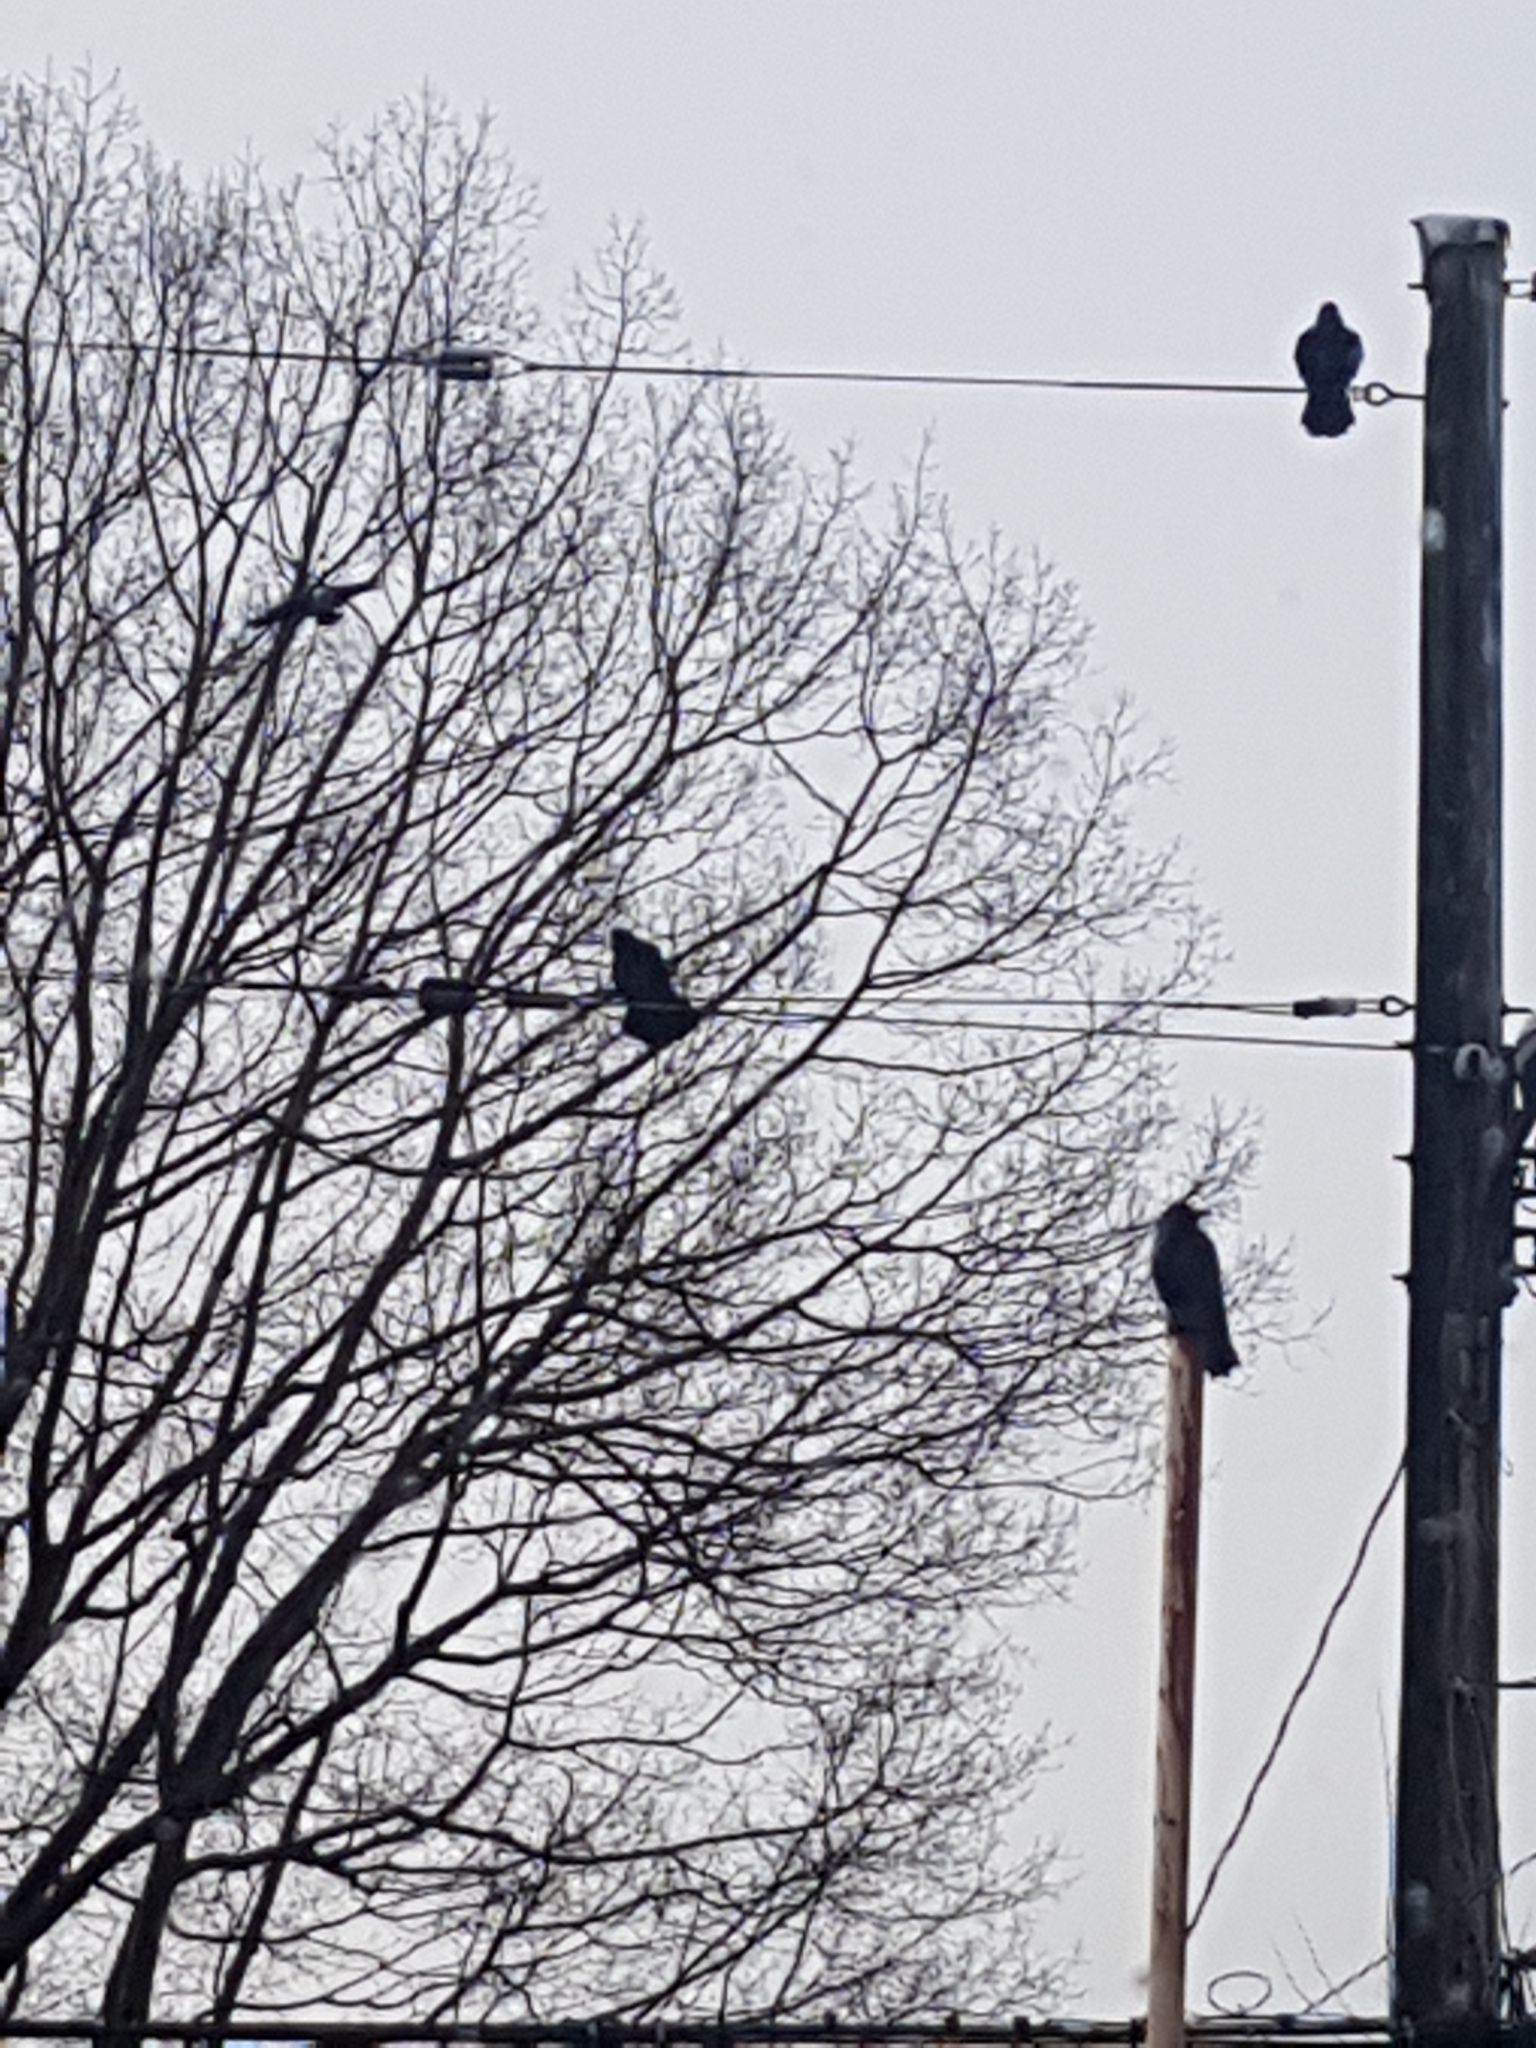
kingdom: Animalia
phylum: Chordata
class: Aves
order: Passeriformes
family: Corvidae
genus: Corvus
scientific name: Corvus brachyrhynchos
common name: American crow
